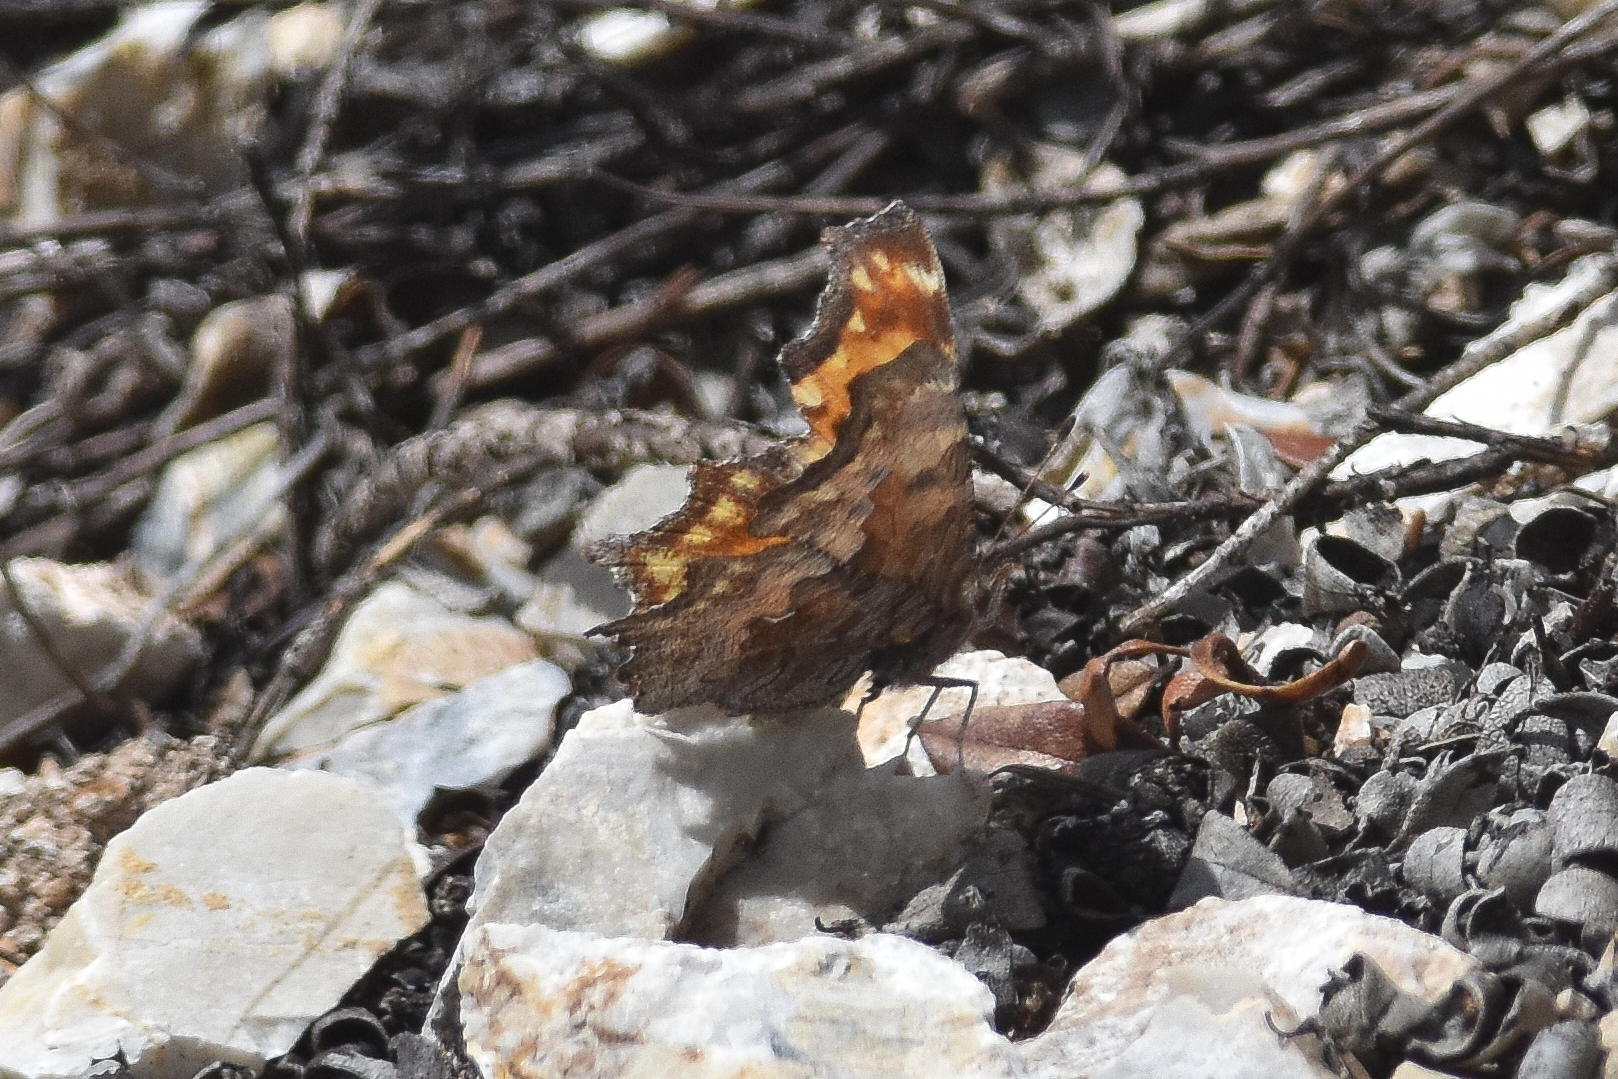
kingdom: Animalia
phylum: Arthropoda
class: Insecta
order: Lepidoptera
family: Nymphalidae
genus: Polygonia
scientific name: Polygonia gracilis
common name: Hoary comma
